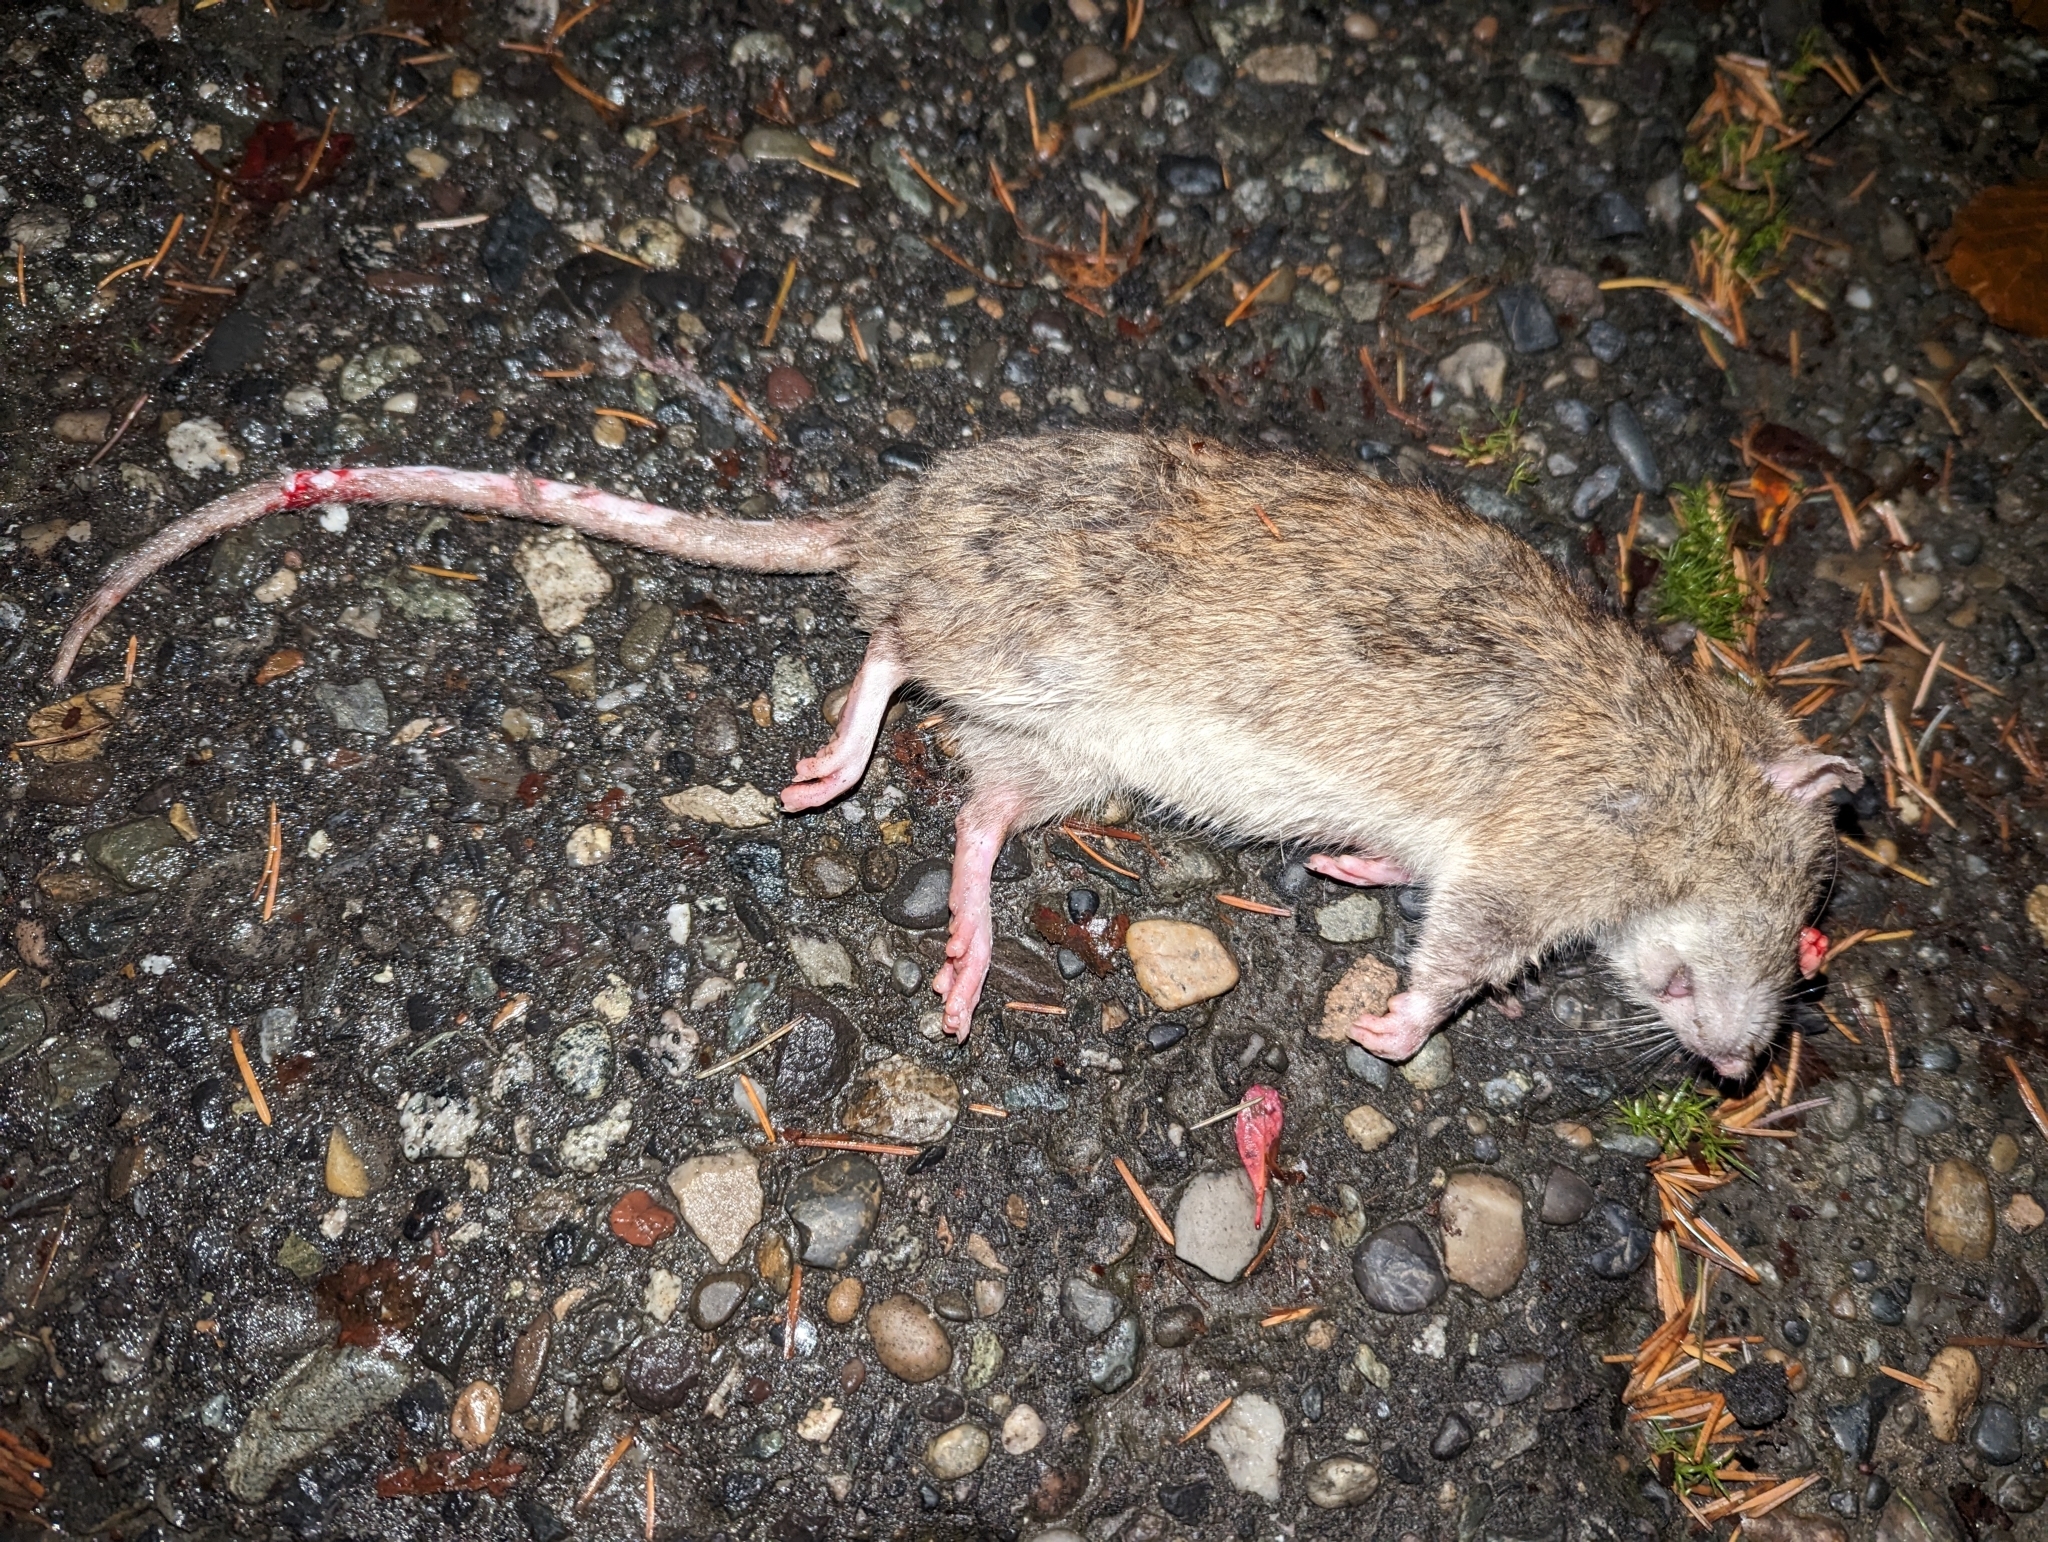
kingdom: Animalia
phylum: Chordata
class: Mammalia
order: Rodentia
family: Muridae
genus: Rattus
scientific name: Rattus norvegicus
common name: Brown rat
